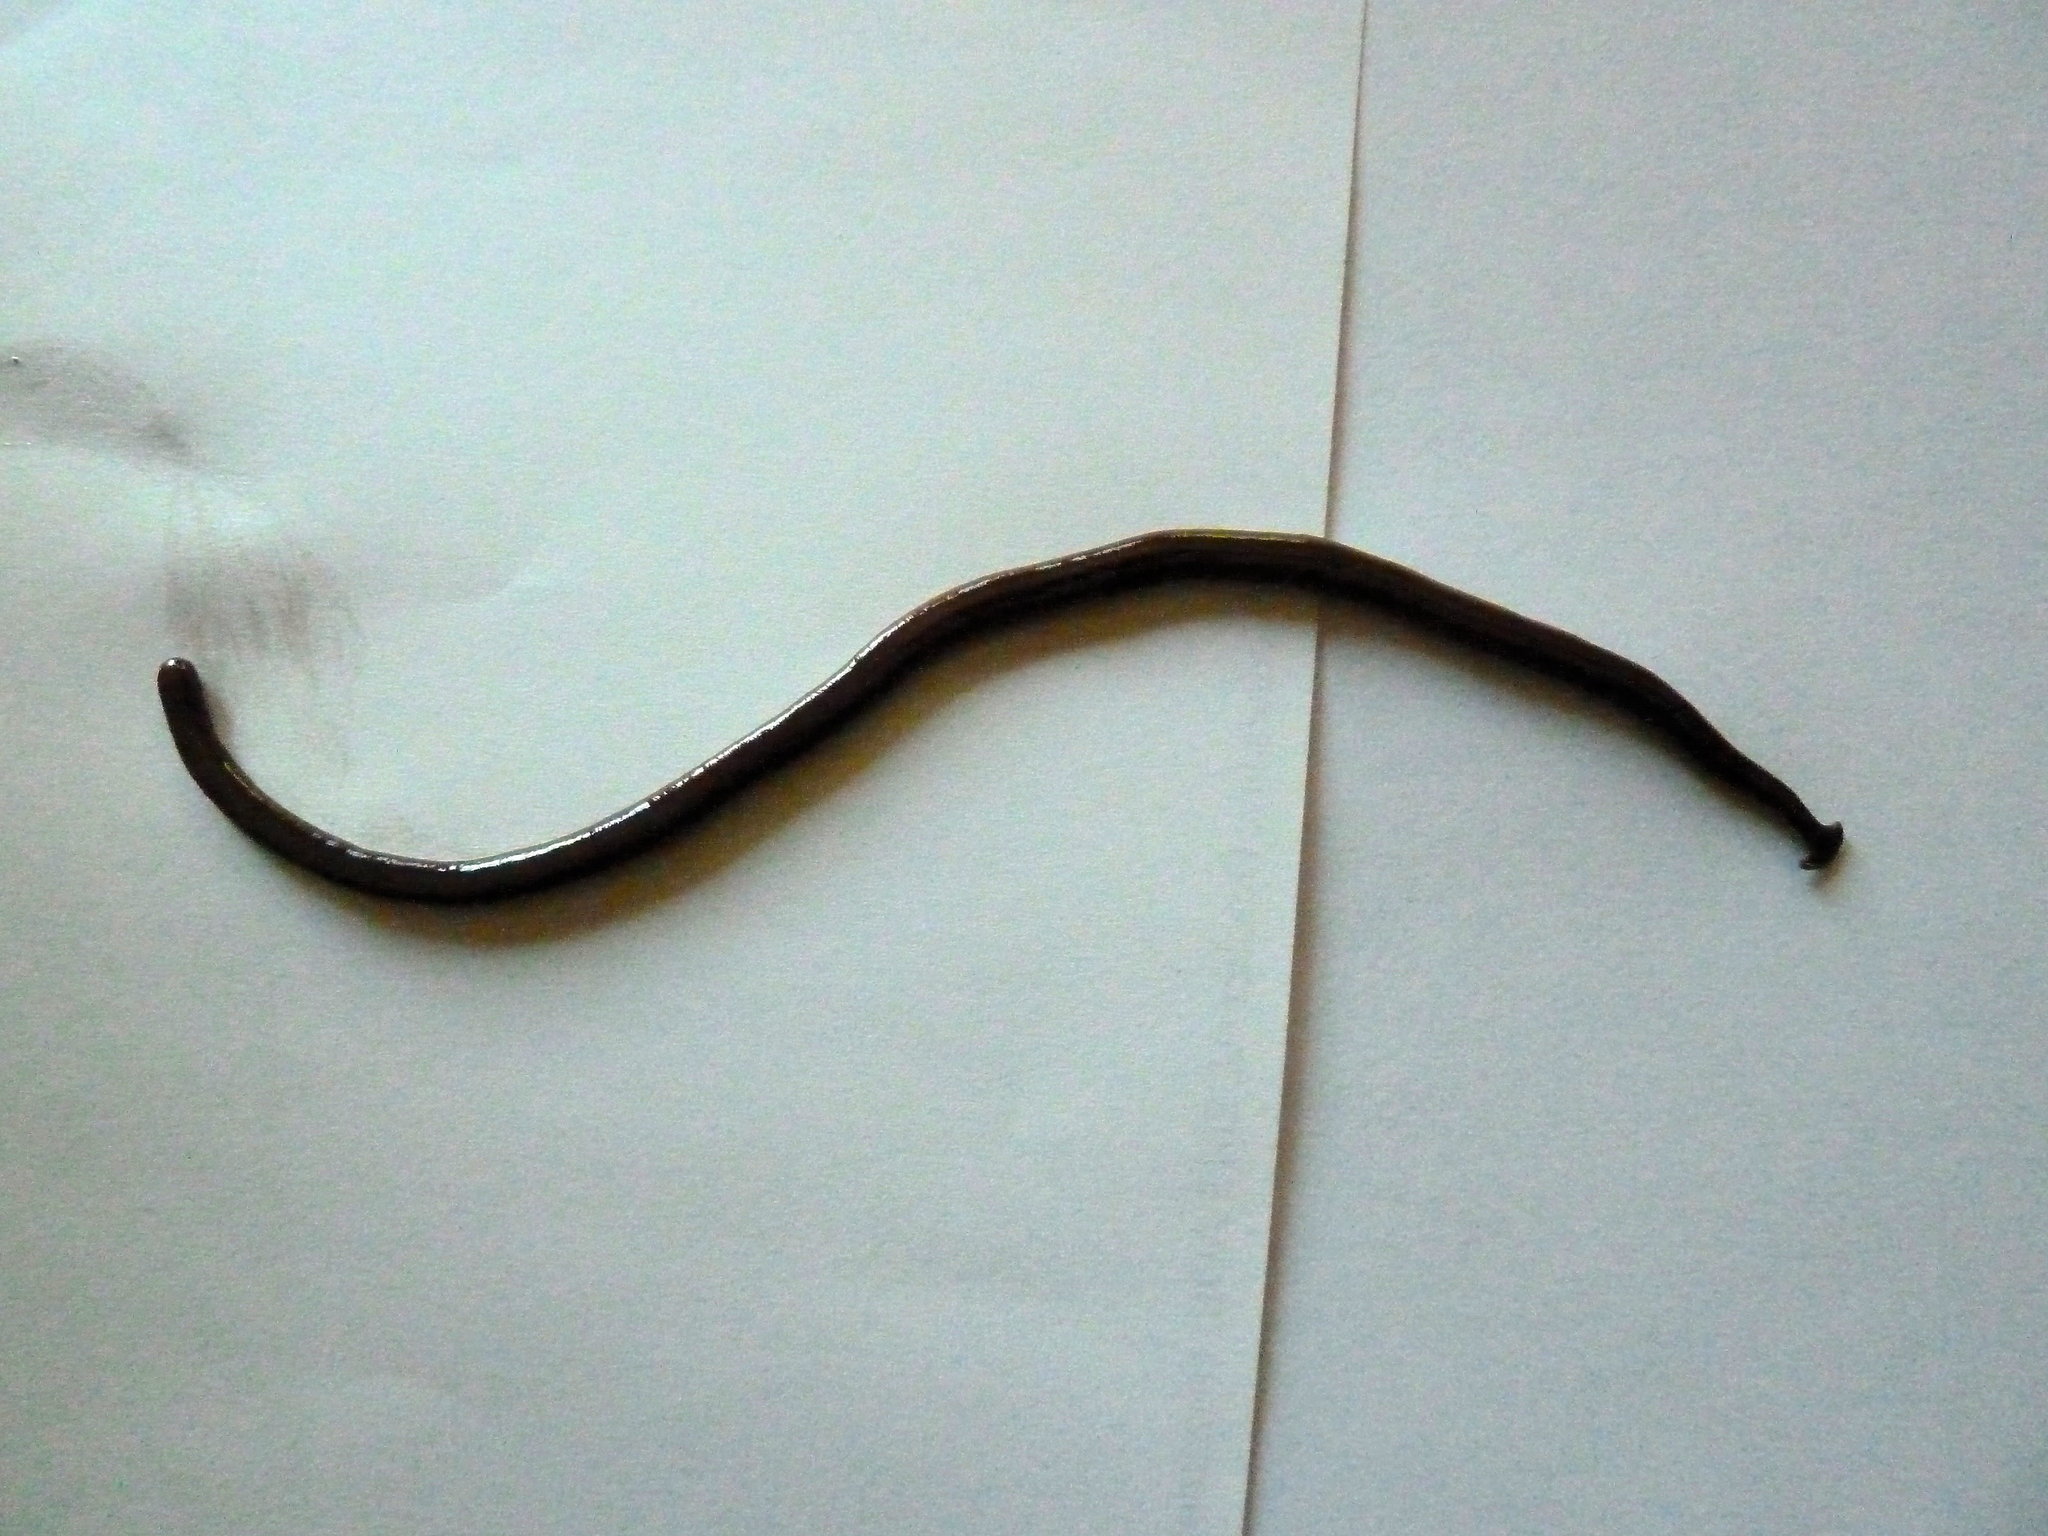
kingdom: Animalia
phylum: Platyhelminthes
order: Tricladida
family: Geoplanidae
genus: Bipalium
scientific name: Bipalium kewense
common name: Hammerhead flatworm
